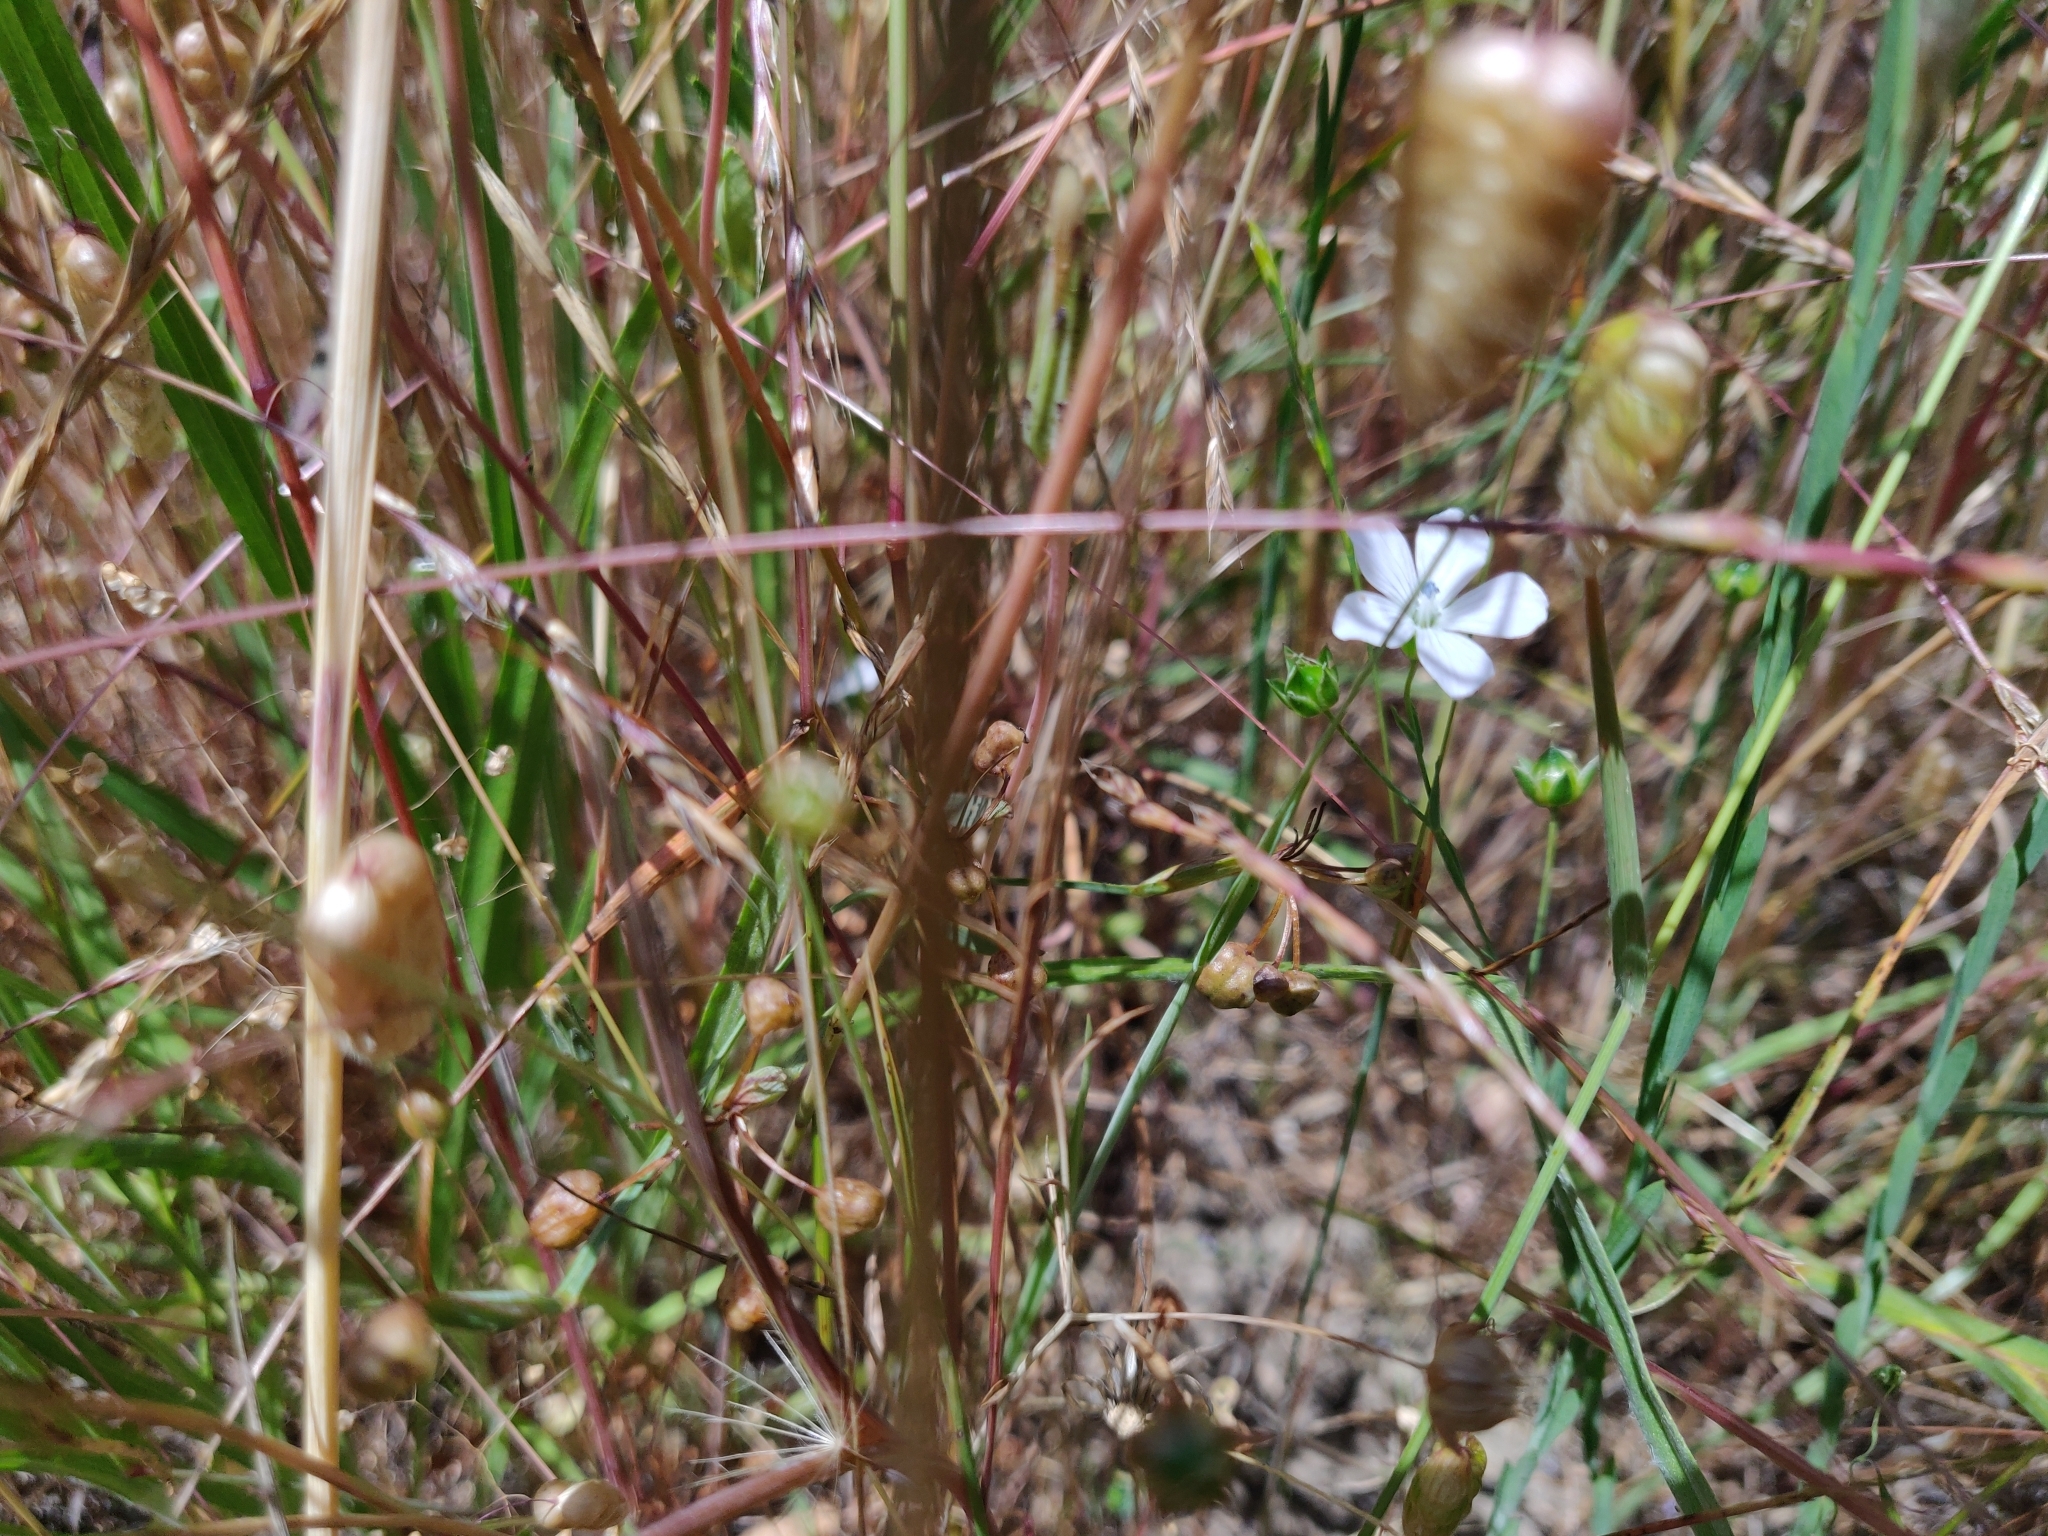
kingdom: Plantae
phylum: Tracheophyta
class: Magnoliopsida
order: Malpighiales
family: Linaceae
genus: Linum
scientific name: Linum bienne
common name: Pale flax
